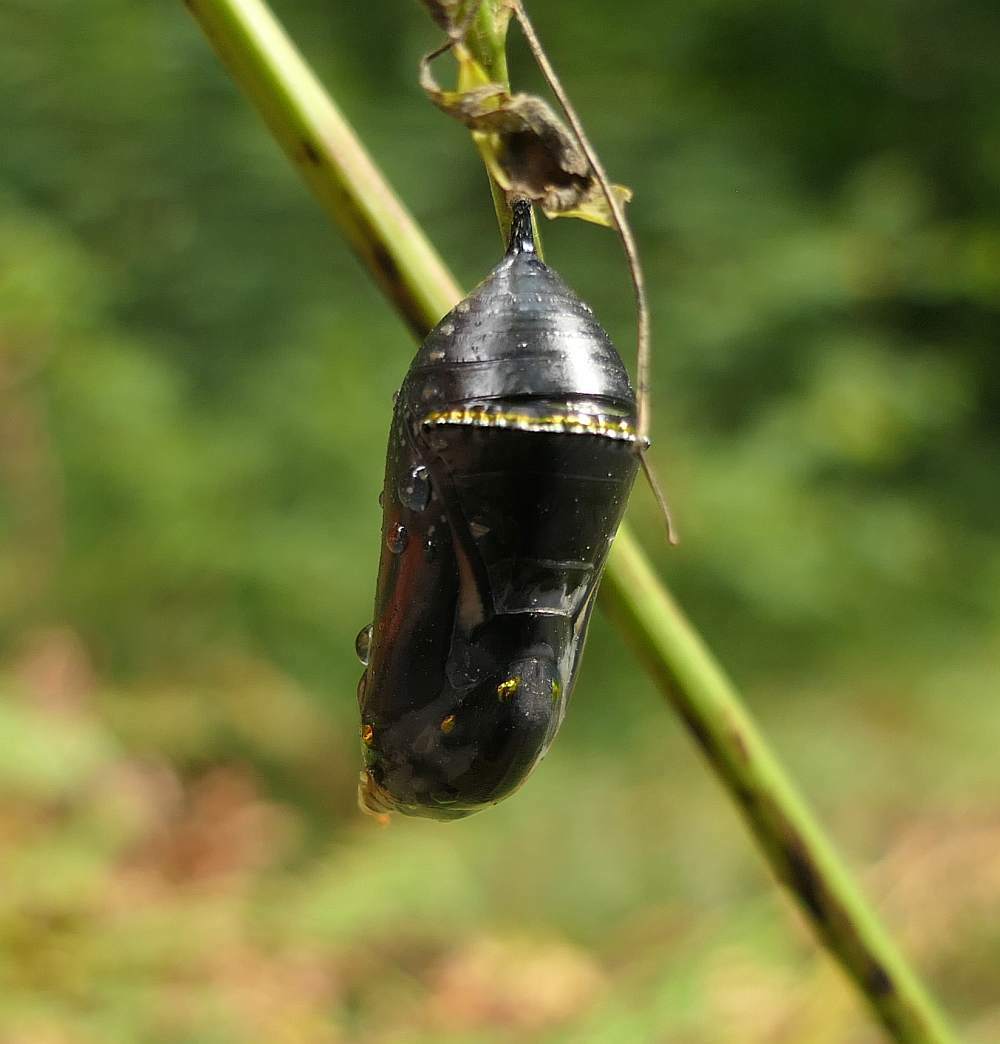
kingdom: Animalia
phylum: Arthropoda
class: Insecta
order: Lepidoptera
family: Nymphalidae
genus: Danaus
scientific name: Danaus plexippus
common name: Monarch
